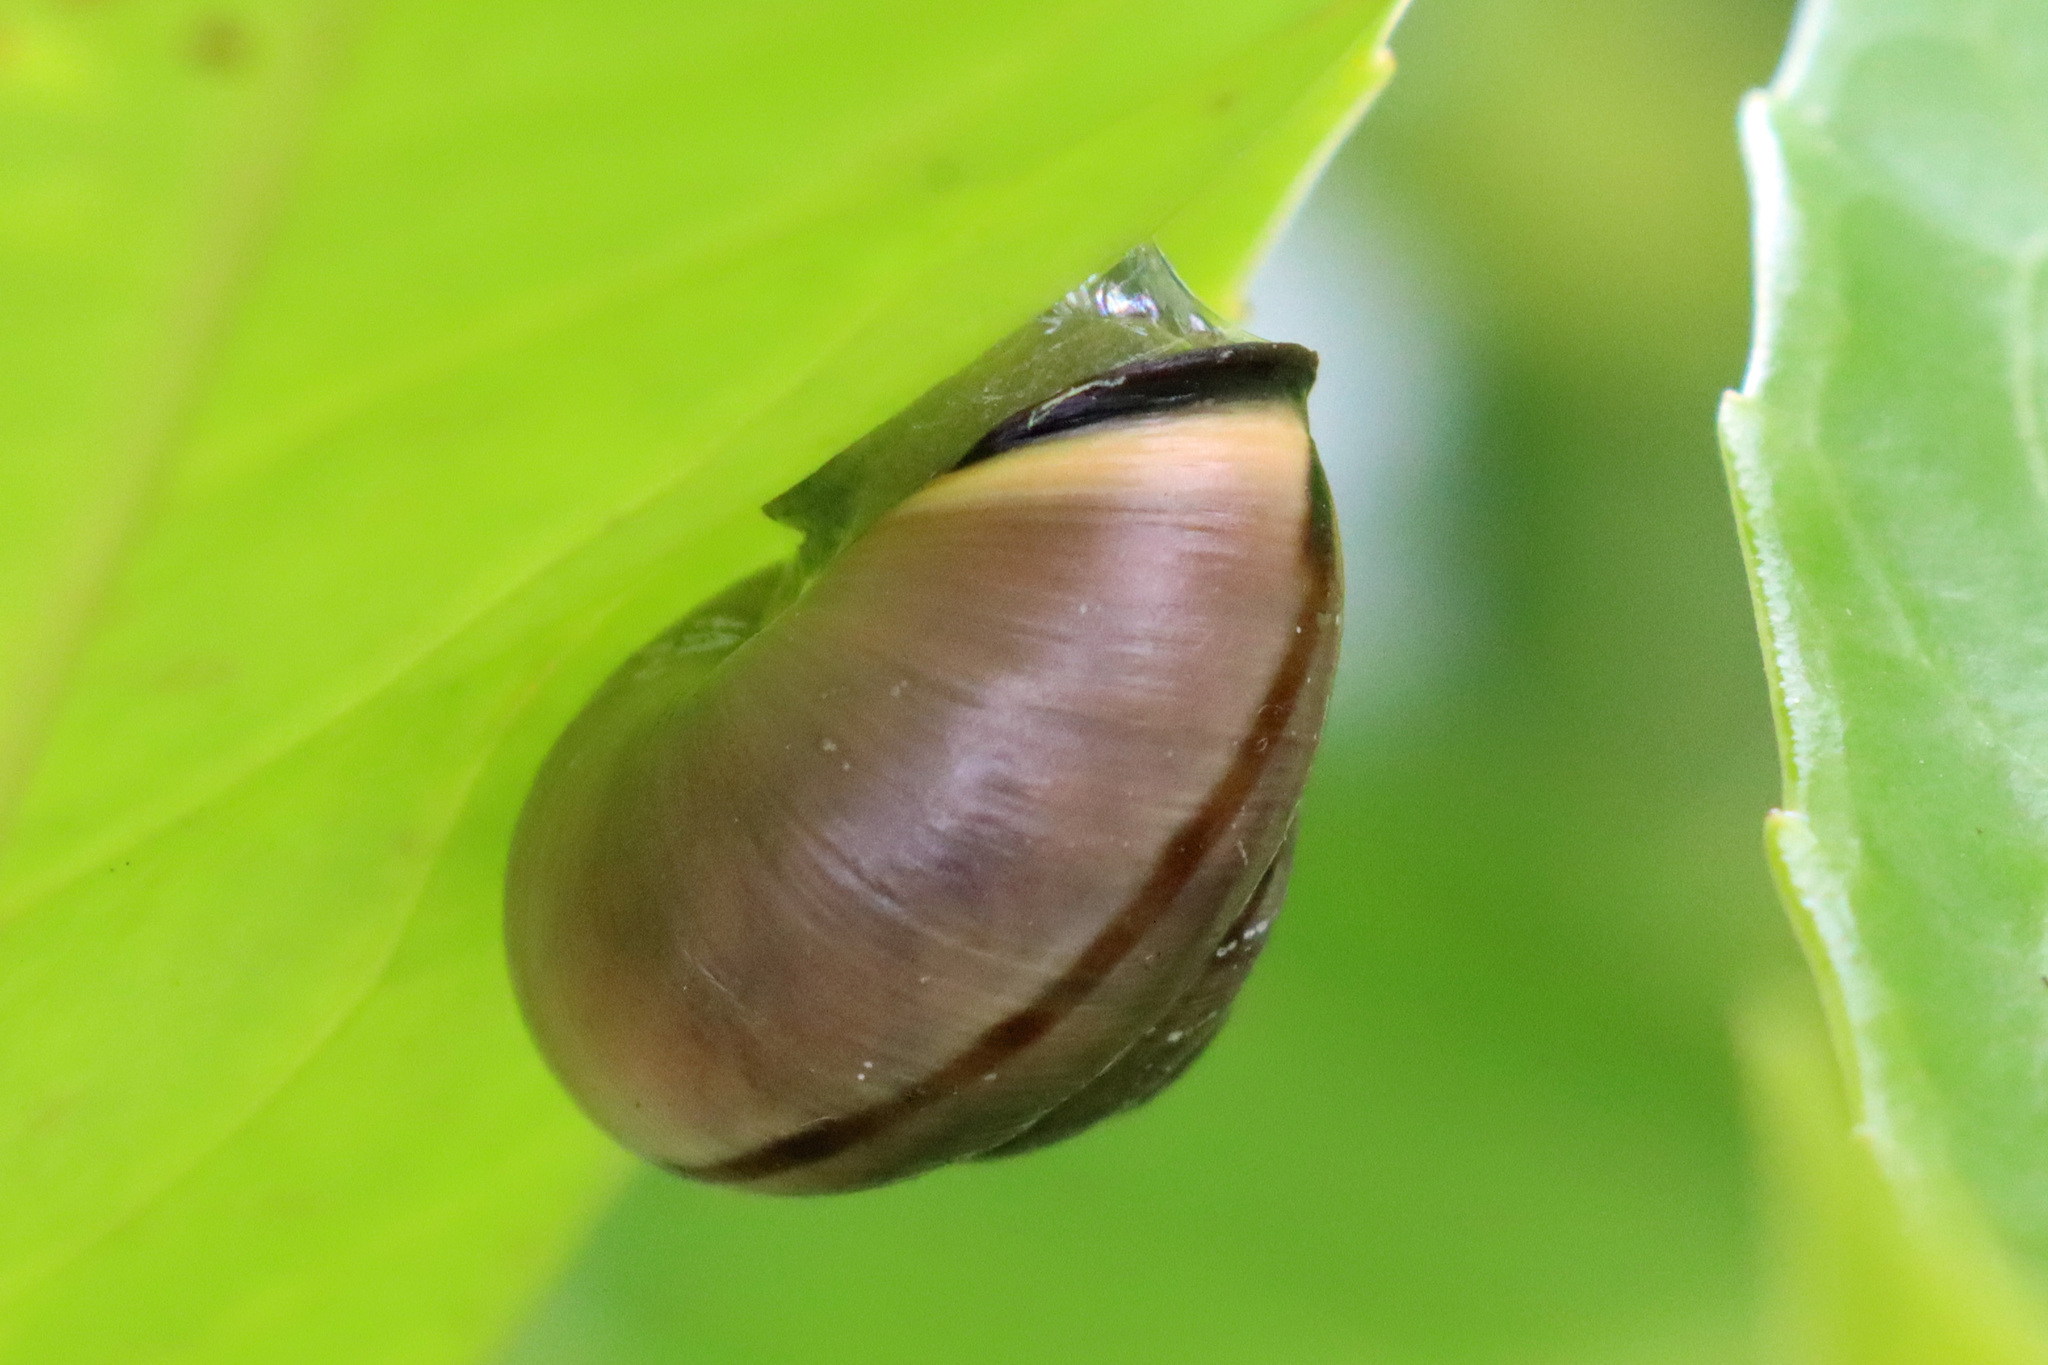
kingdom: Animalia
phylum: Mollusca
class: Gastropoda
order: Stylommatophora
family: Helicidae
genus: Cepaea
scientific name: Cepaea nemoralis
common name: Grovesnail
